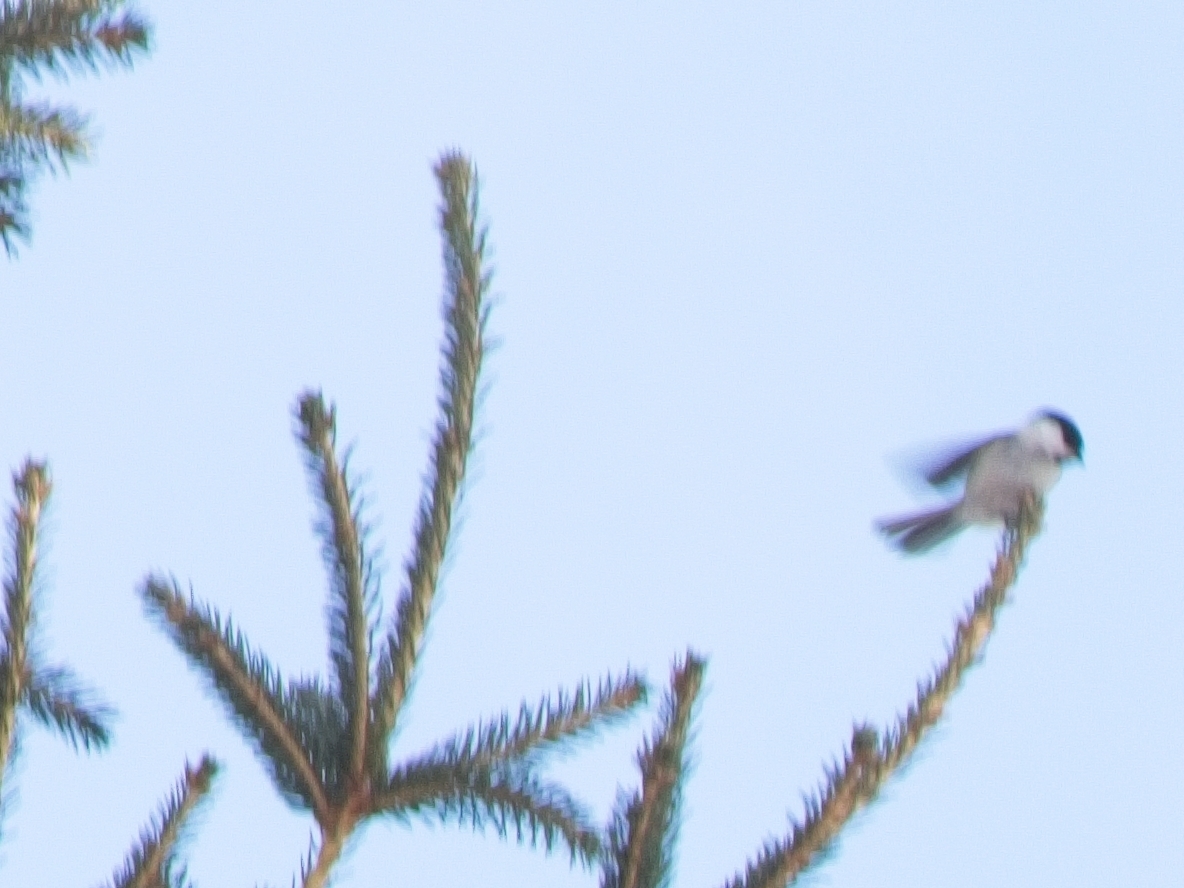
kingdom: Animalia
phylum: Chordata
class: Aves
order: Passeriformes
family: Paridae
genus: Poecile
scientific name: Poecile montanus
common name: Willow tit
